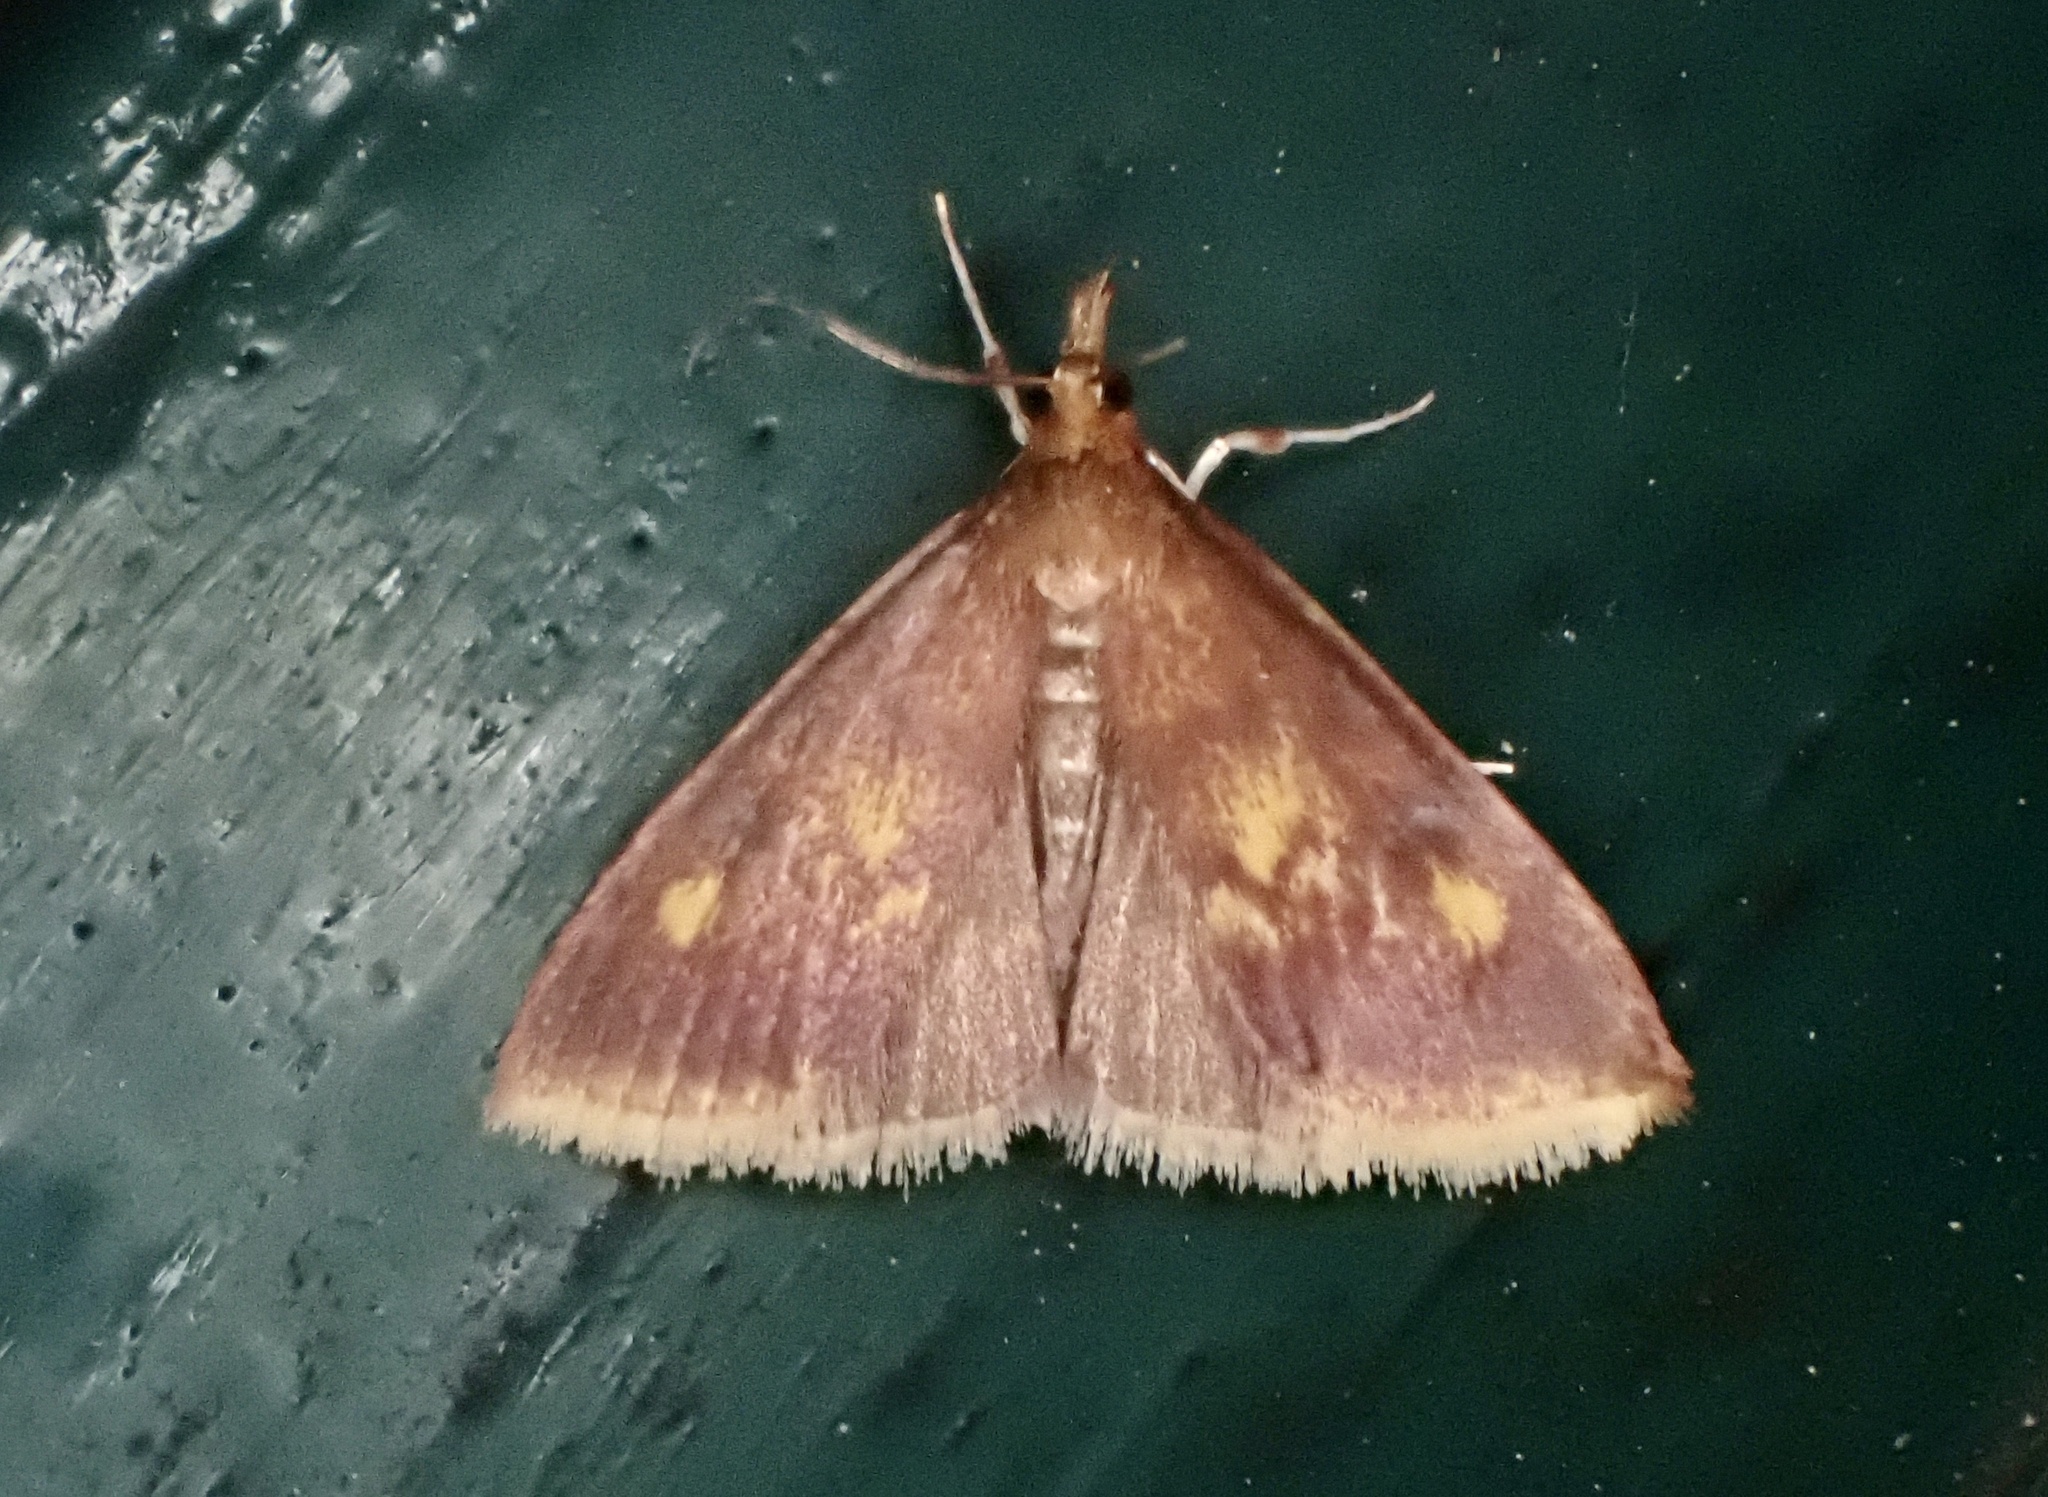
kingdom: Animalia
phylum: Arthropoda
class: Insecta
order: Lepidoptera
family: Crambidae
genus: Pyrausta
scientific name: Pyrausta acrionalis
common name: Mint-loving pyrausta moth
